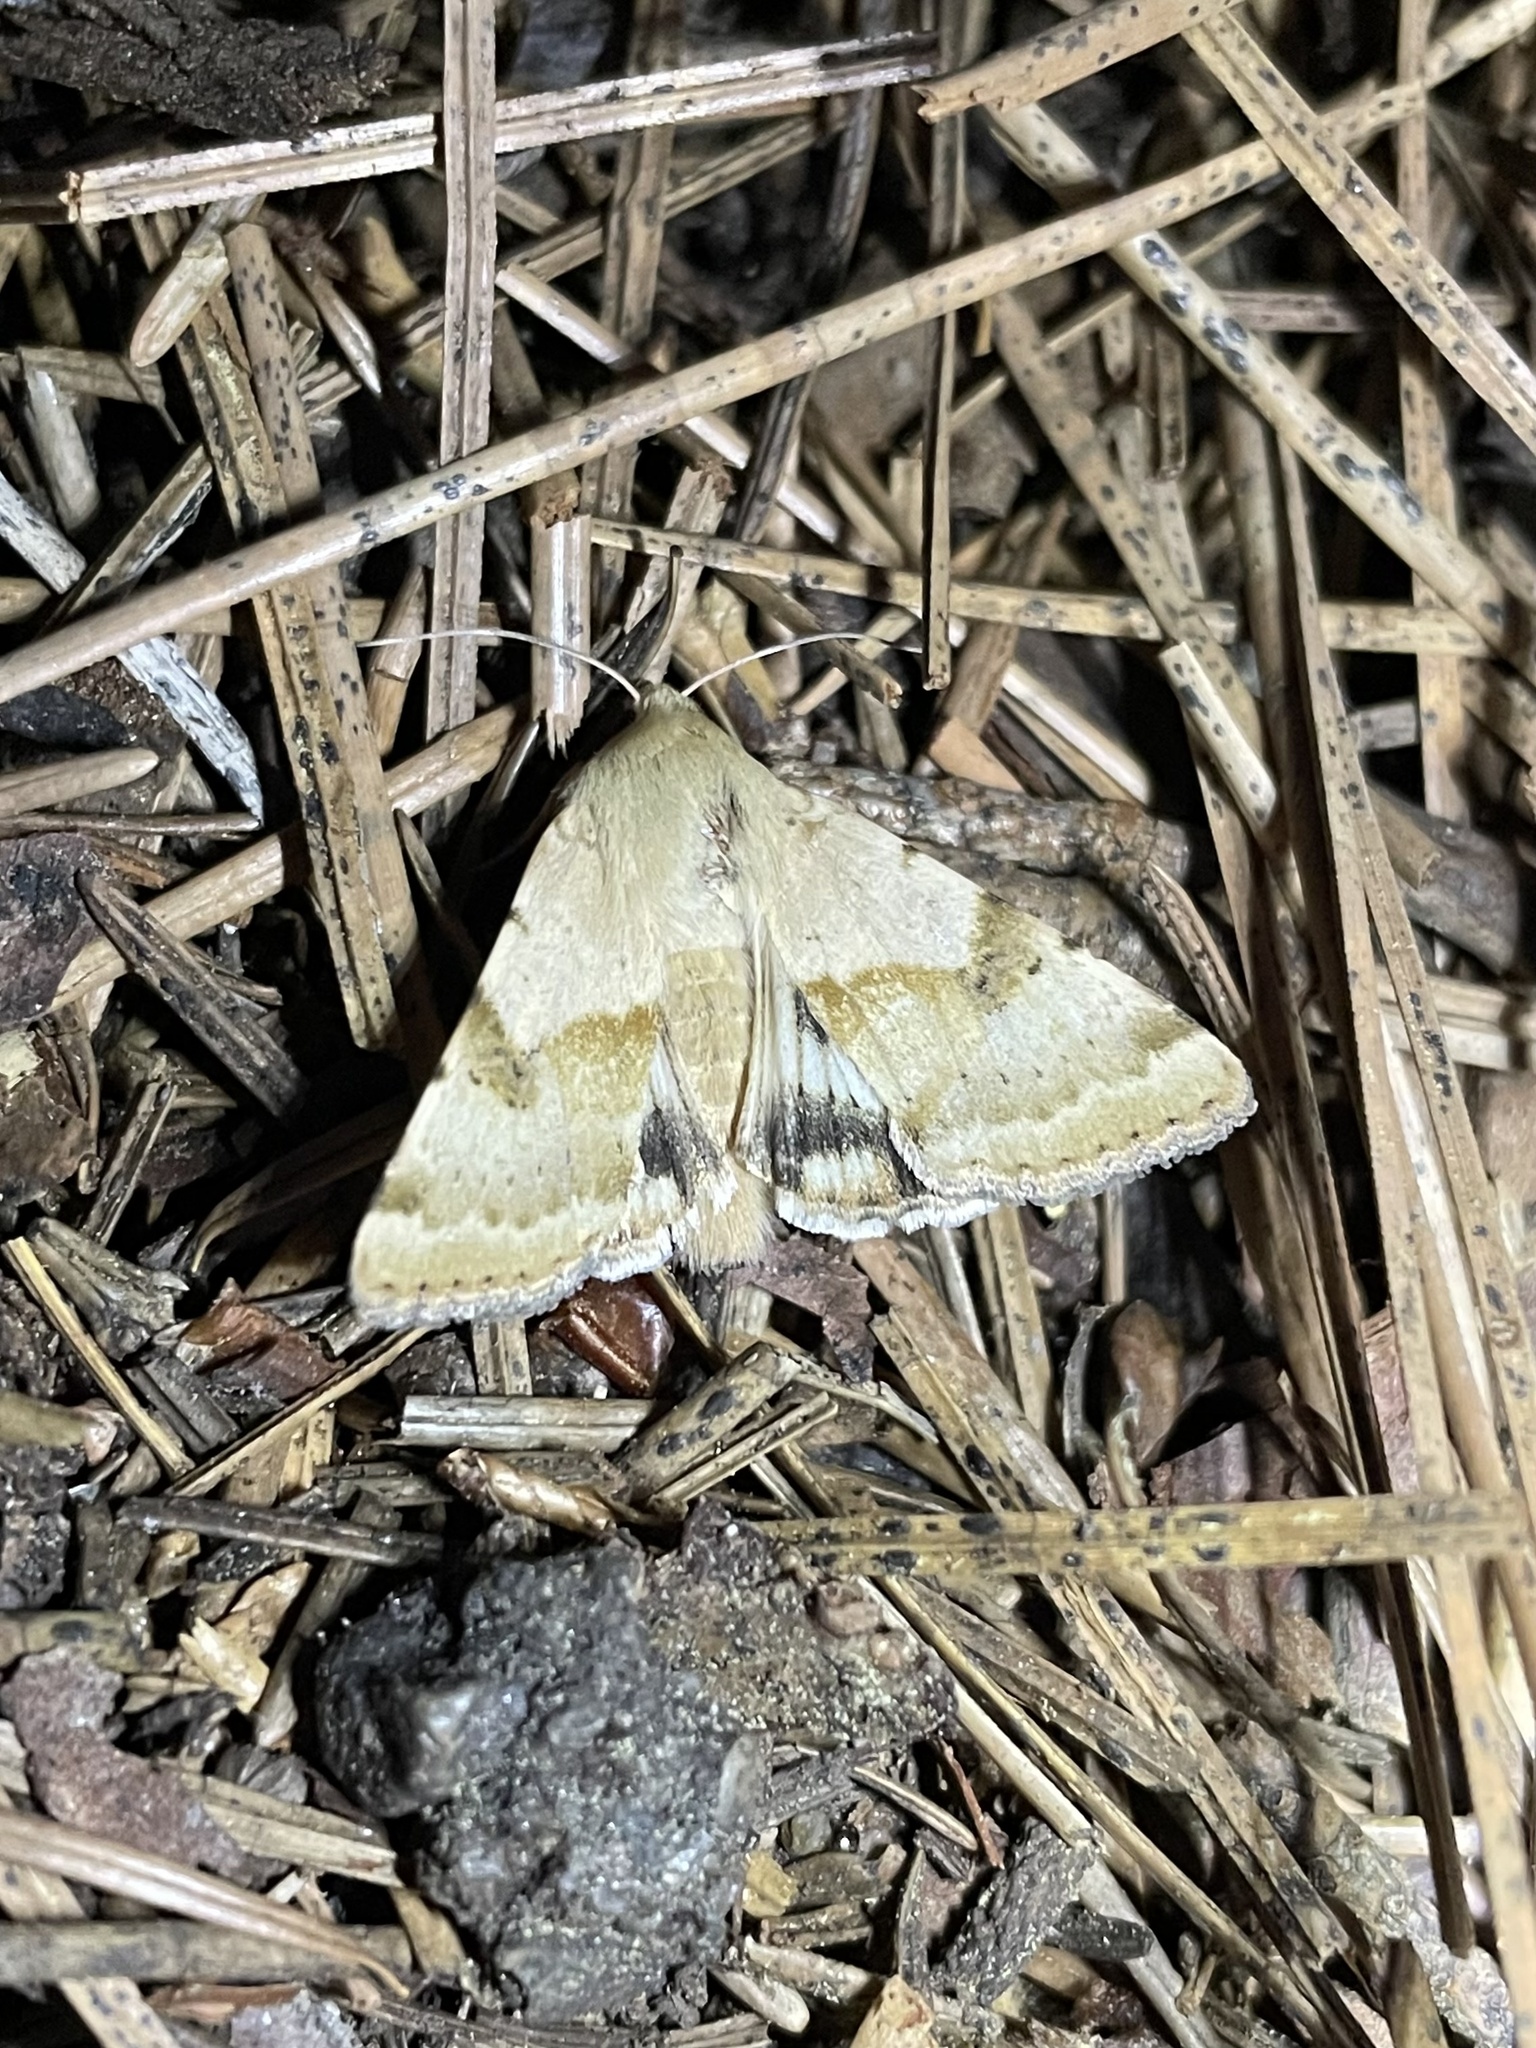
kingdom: Animalia
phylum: Arthropoda
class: Insecta
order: Lepidoptera
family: Noctuidae
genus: Heliothis
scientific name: Heliothis phloxiphaga
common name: Darker spotted straw moth
